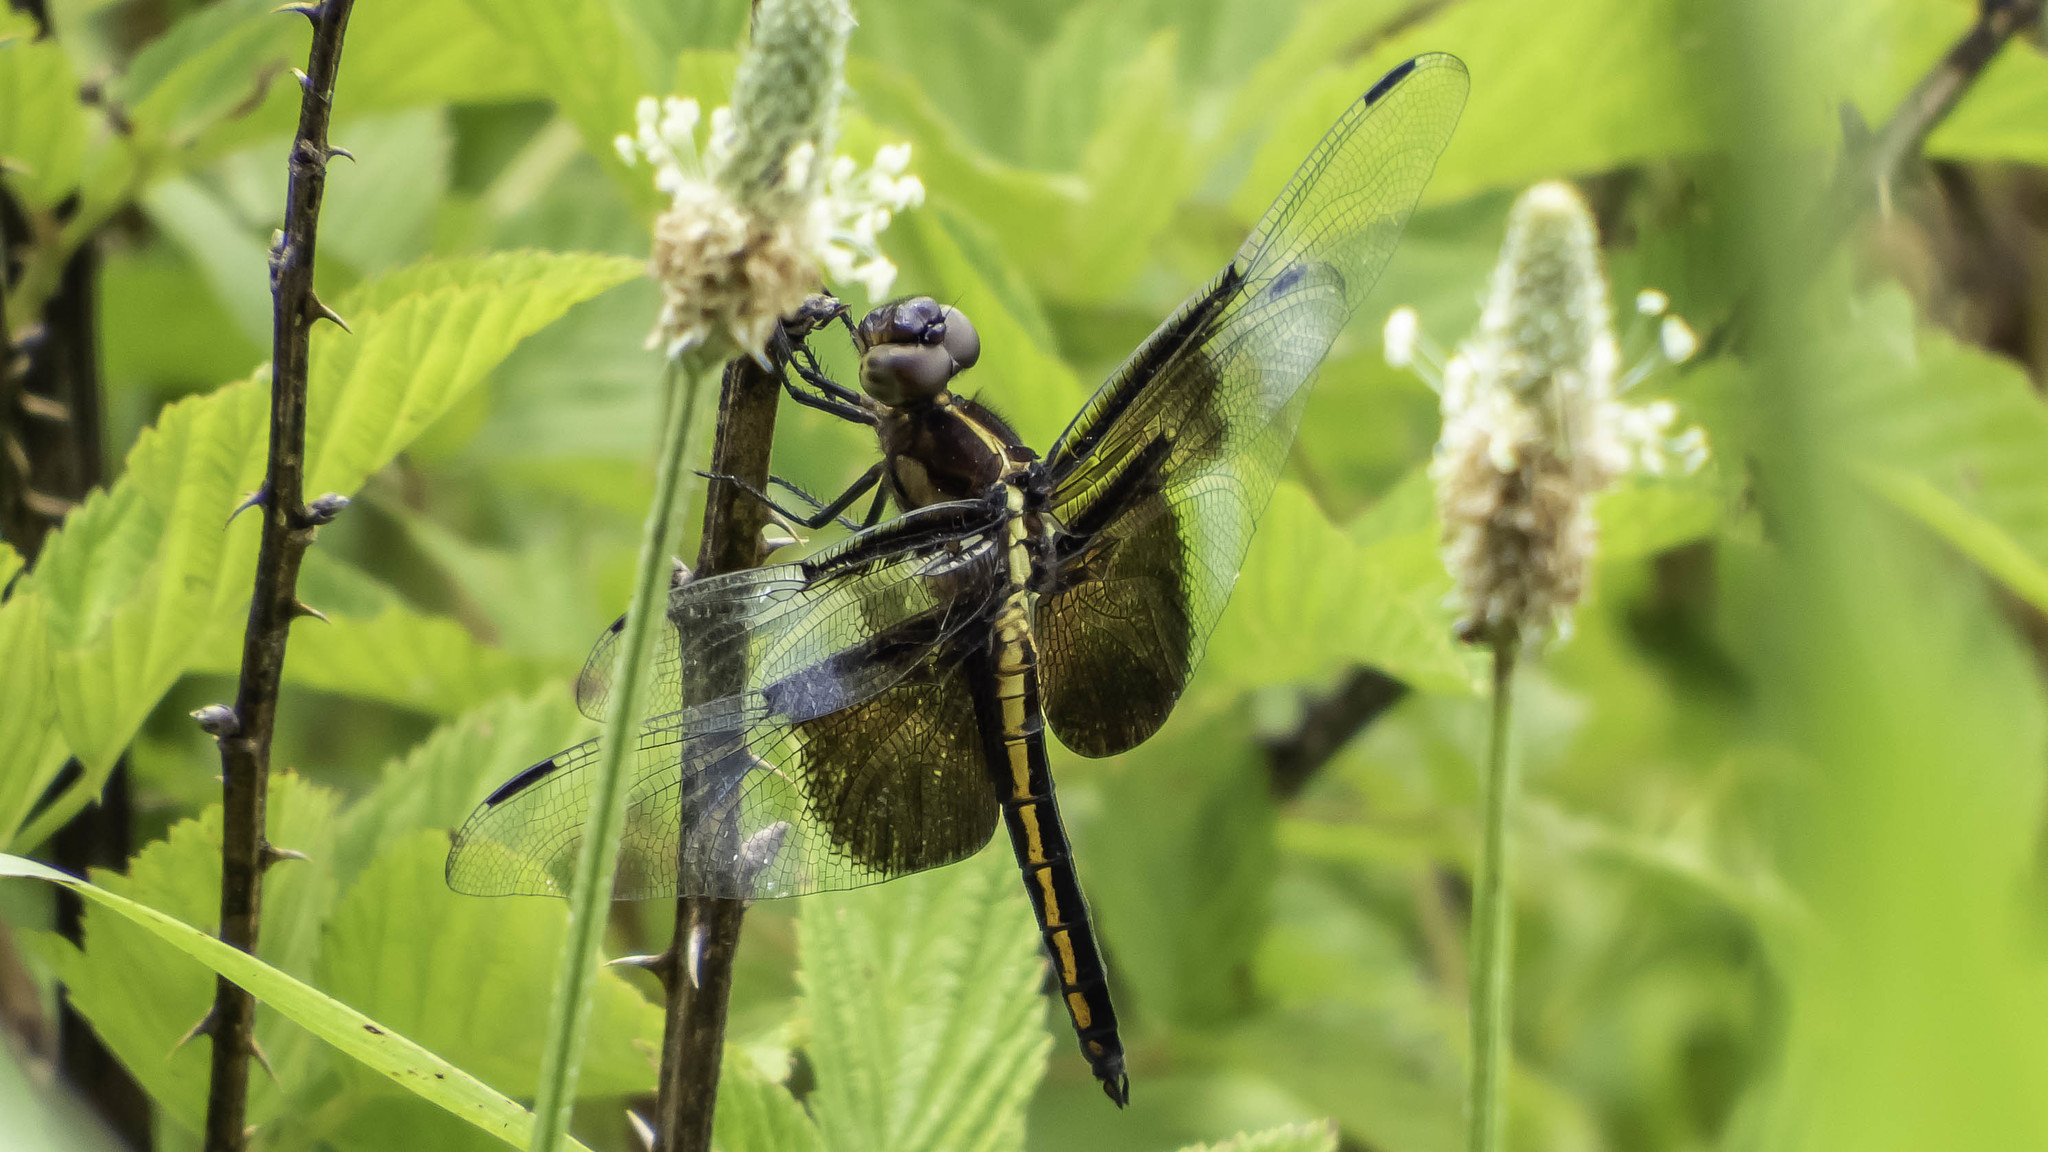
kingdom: Animalia
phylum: Arthropoda
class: Insecta
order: Odonata
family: Libellulidae
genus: Libellula
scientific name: Libellula luctuosa
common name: Widow skimmer
